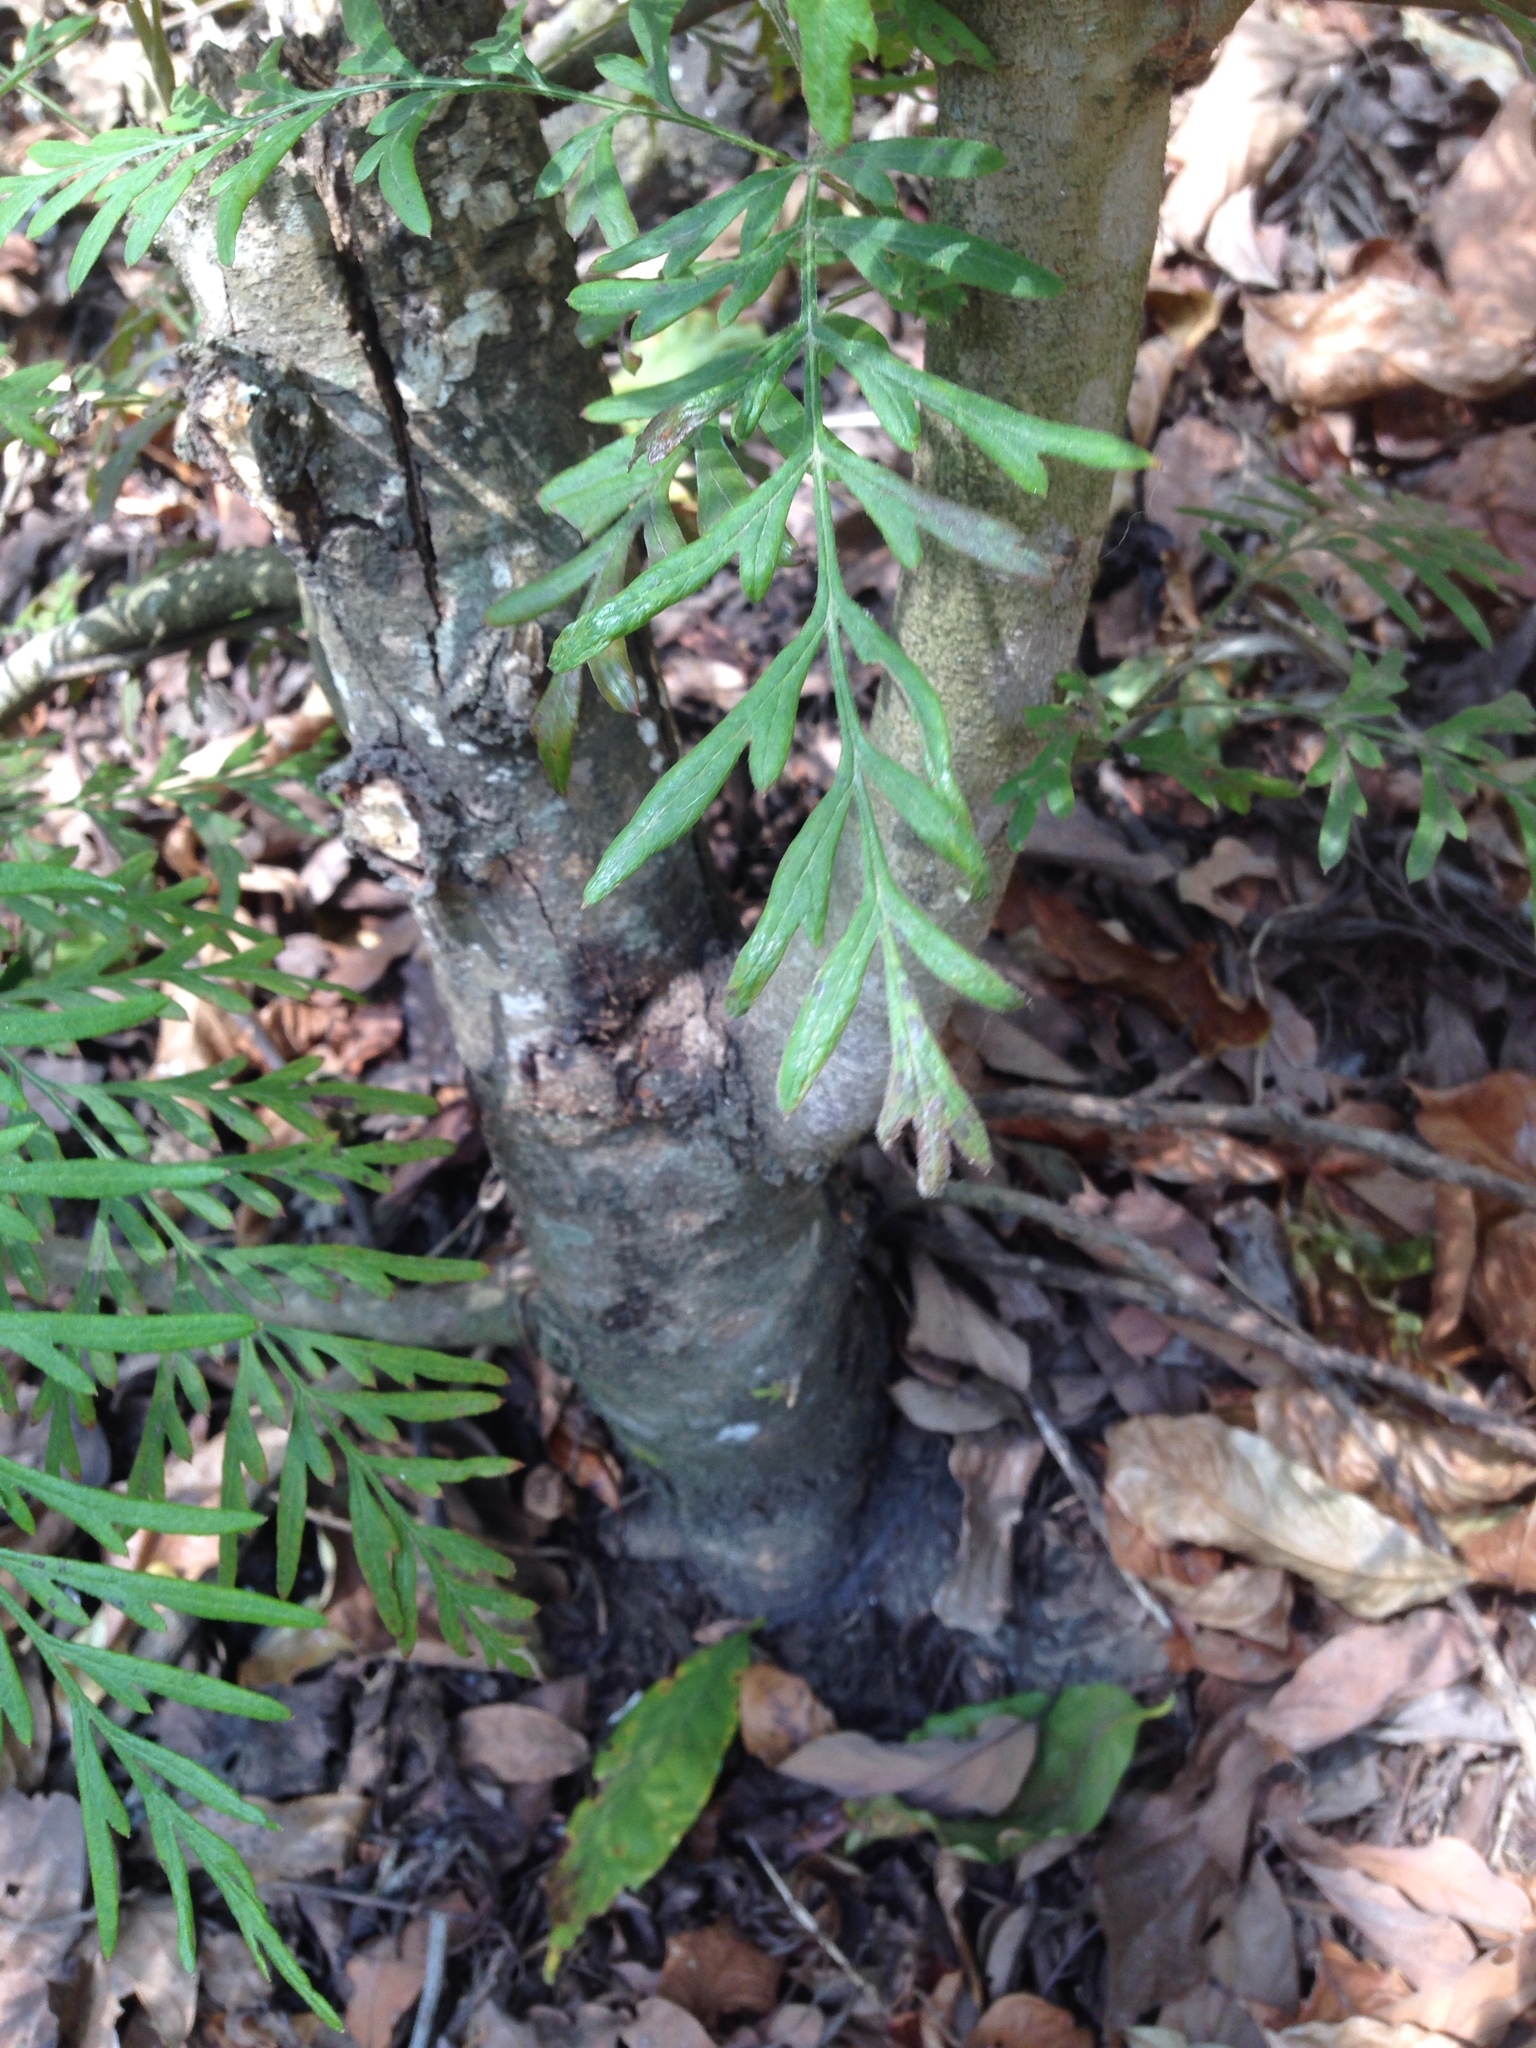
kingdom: Plantae
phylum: Tracheophyta
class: Magnoliopsida
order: Proteales
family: Proteaceae
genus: Grevillea
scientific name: Grevillea robusta
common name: Silkoak
